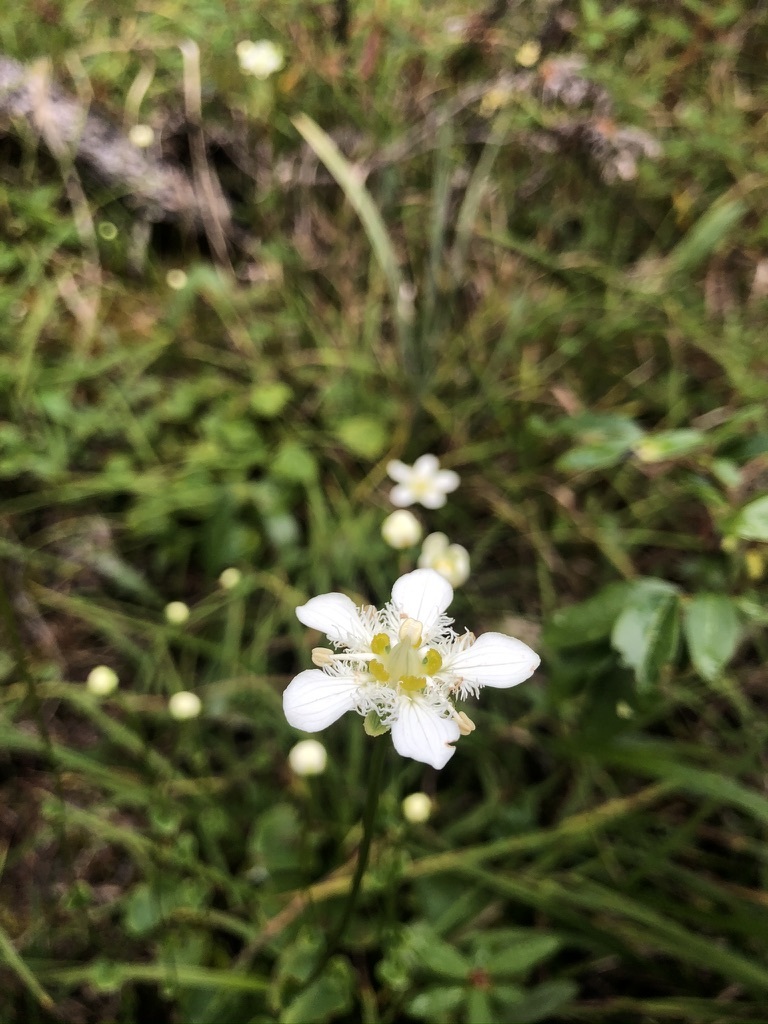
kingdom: Plantae
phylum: Tracheophyta
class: Magnoliopsida
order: Celastrales
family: Parnassiaceae
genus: Parnassia
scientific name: Parnassia fimbriata
